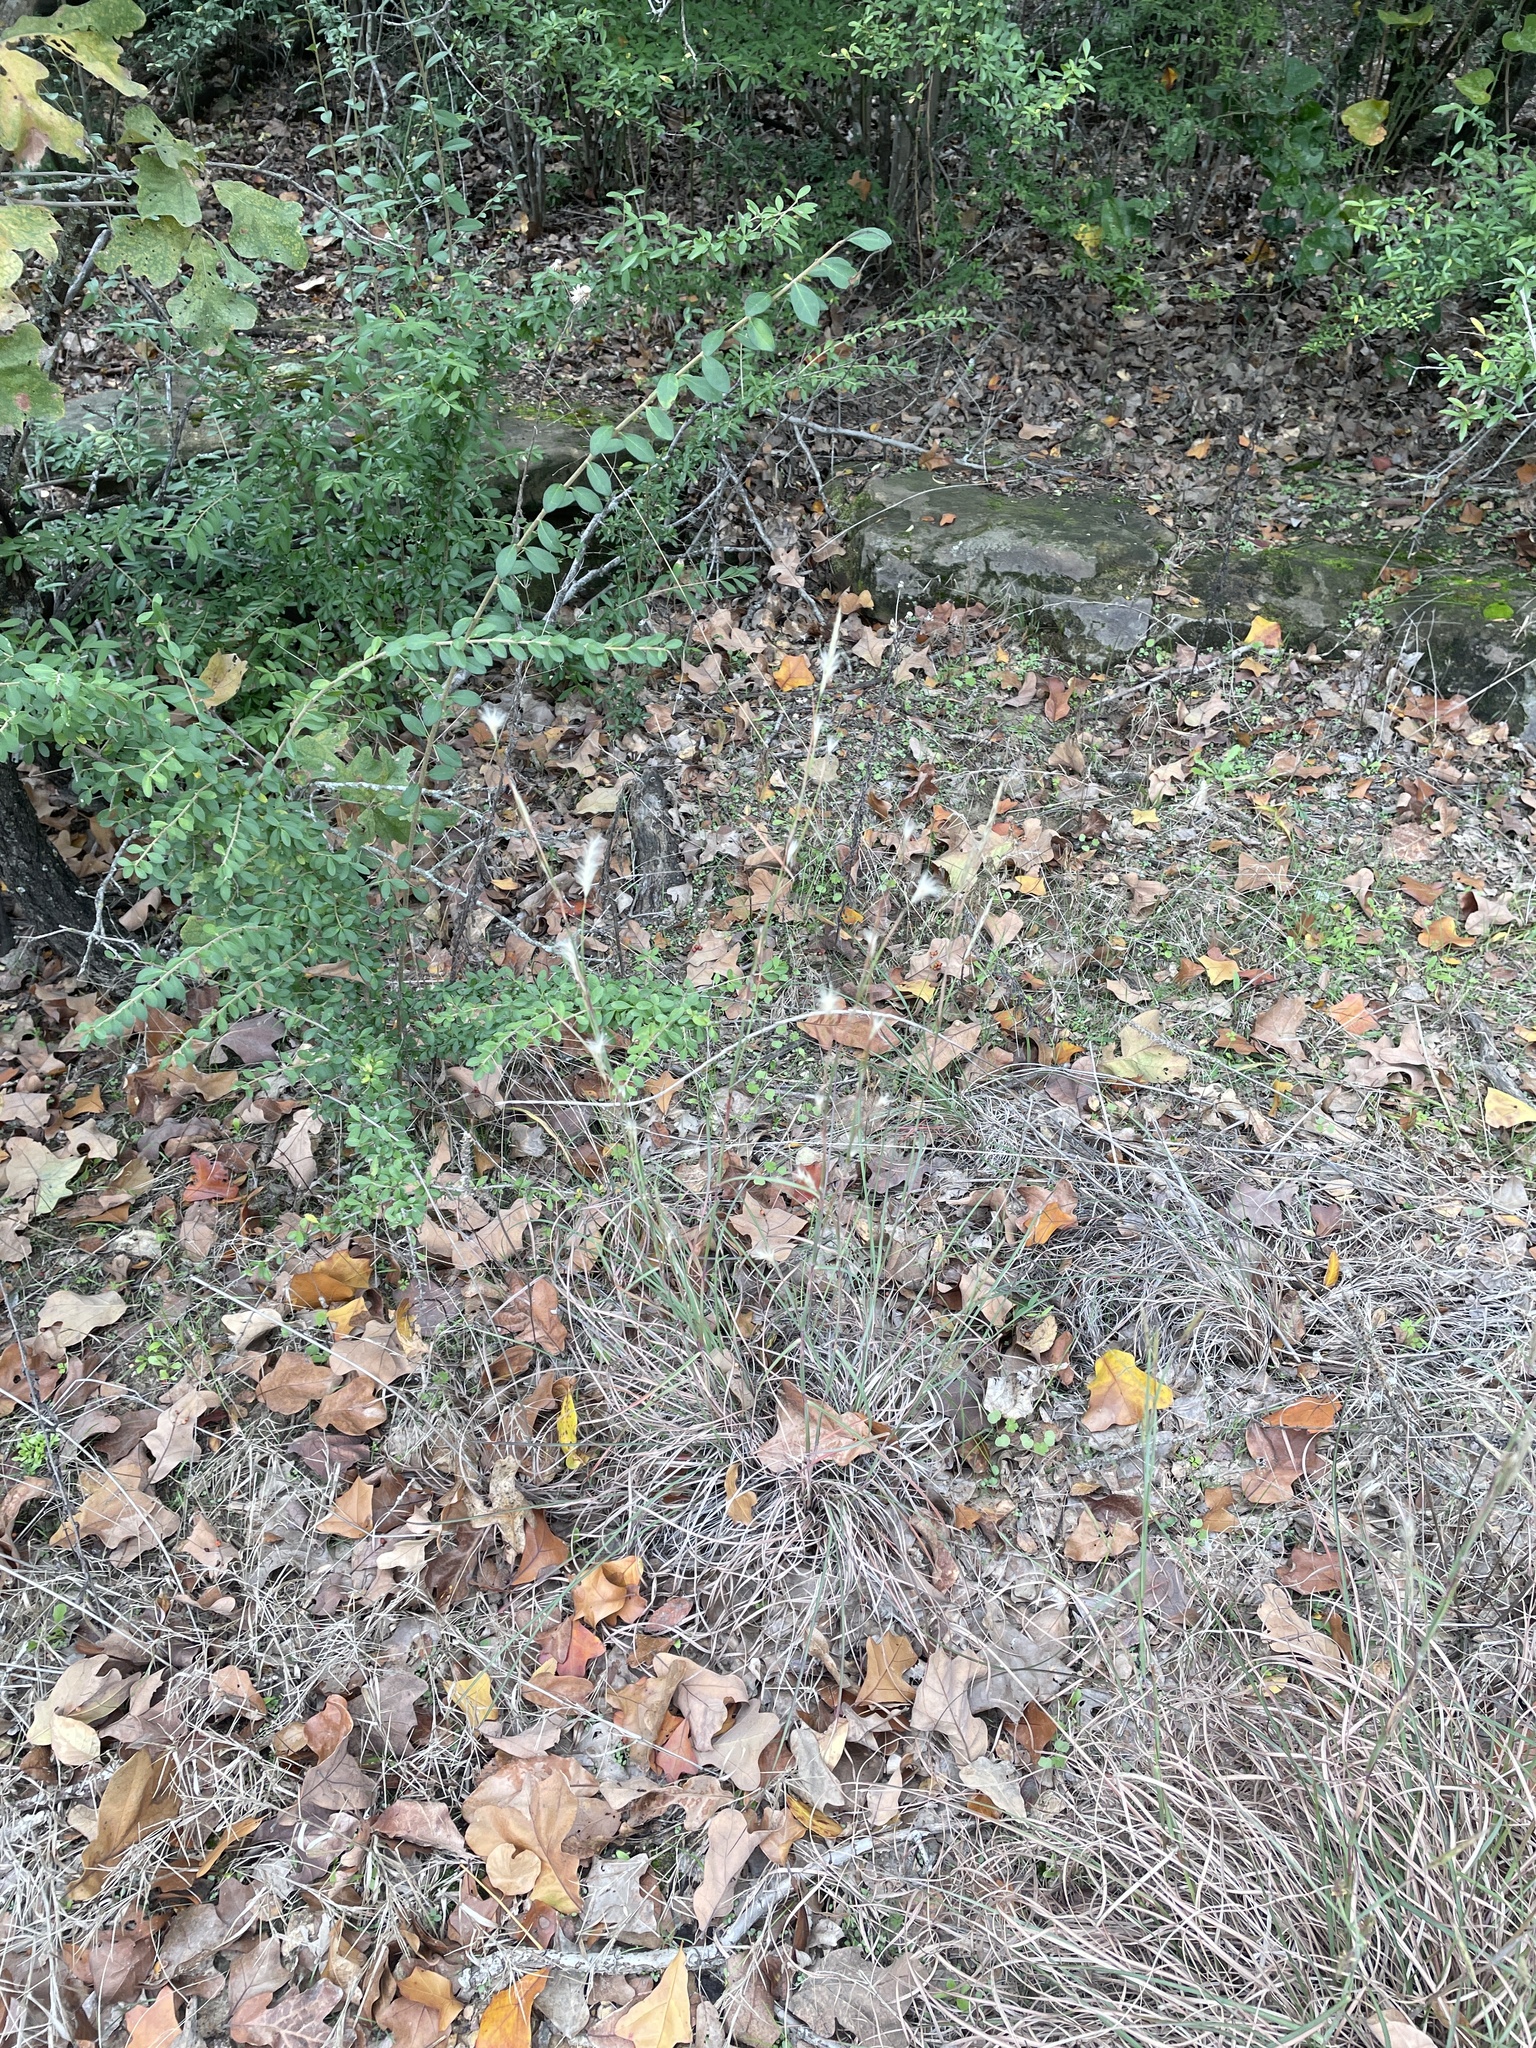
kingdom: Plantae
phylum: Tracheophyta
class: Liliopsida
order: Poales
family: Poaceae
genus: Andropogon
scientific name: Andropogon ternarius
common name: Split bluestem
